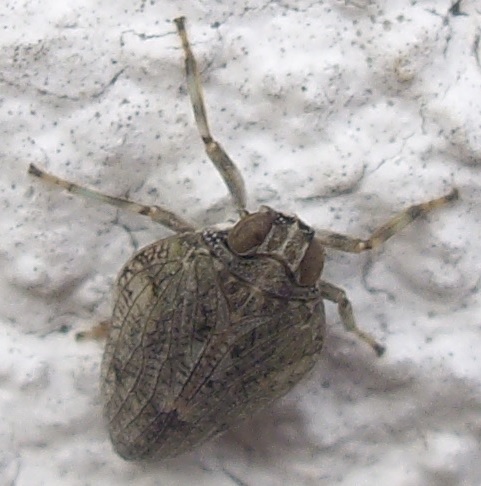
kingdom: Animalia
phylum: Arthropoda
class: Insecta
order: Hemiptera
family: Issidae
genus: Issus
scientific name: Issus coleoptratus
